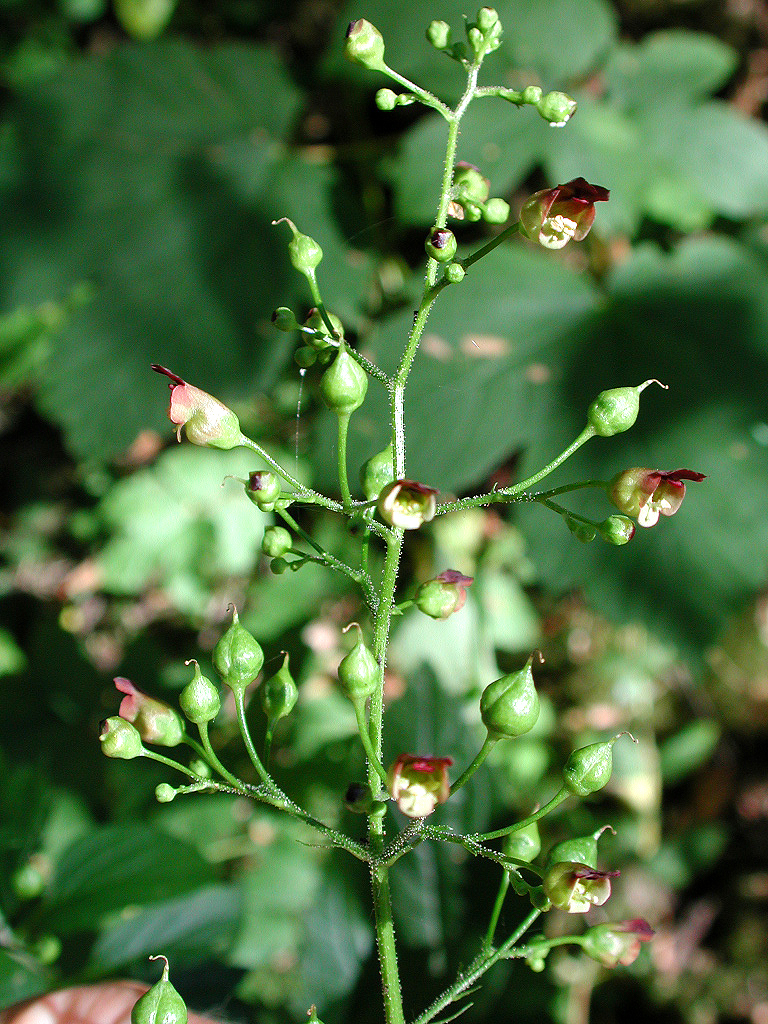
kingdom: Plantae
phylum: Tracheophyta
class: Magnoliopsida
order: Lamiales
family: Scrophulariaceae
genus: Scrophularia
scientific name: Scrophularia nodosa
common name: Common figwort
